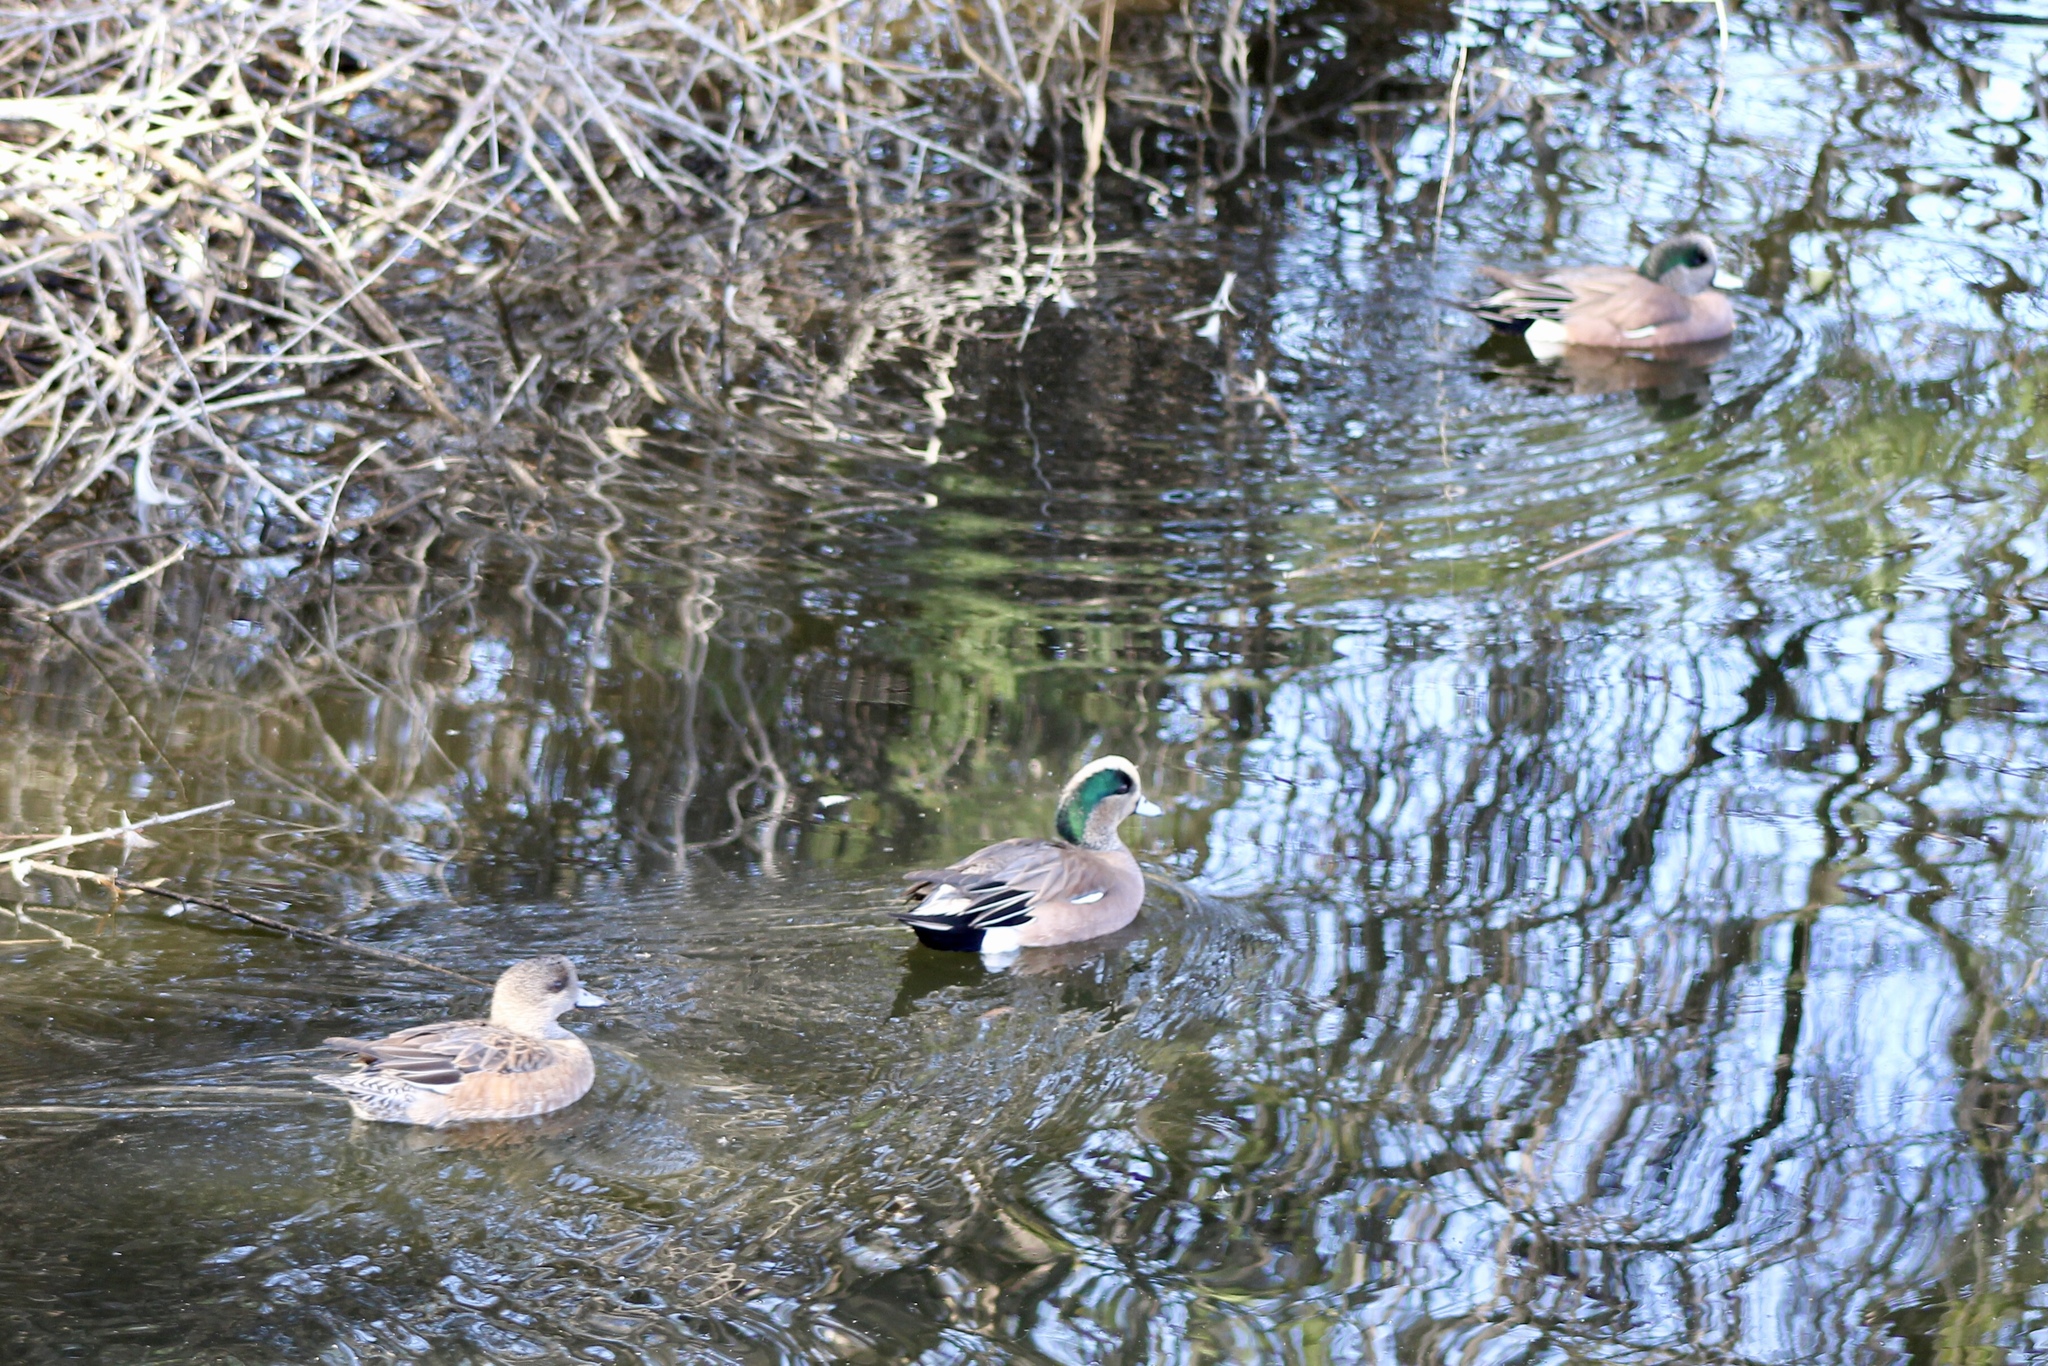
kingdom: Animalia
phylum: Chordata
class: Aves
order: Anseriformes
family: Anatidae
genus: Mareca
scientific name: Mareca americana
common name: American wigeon
